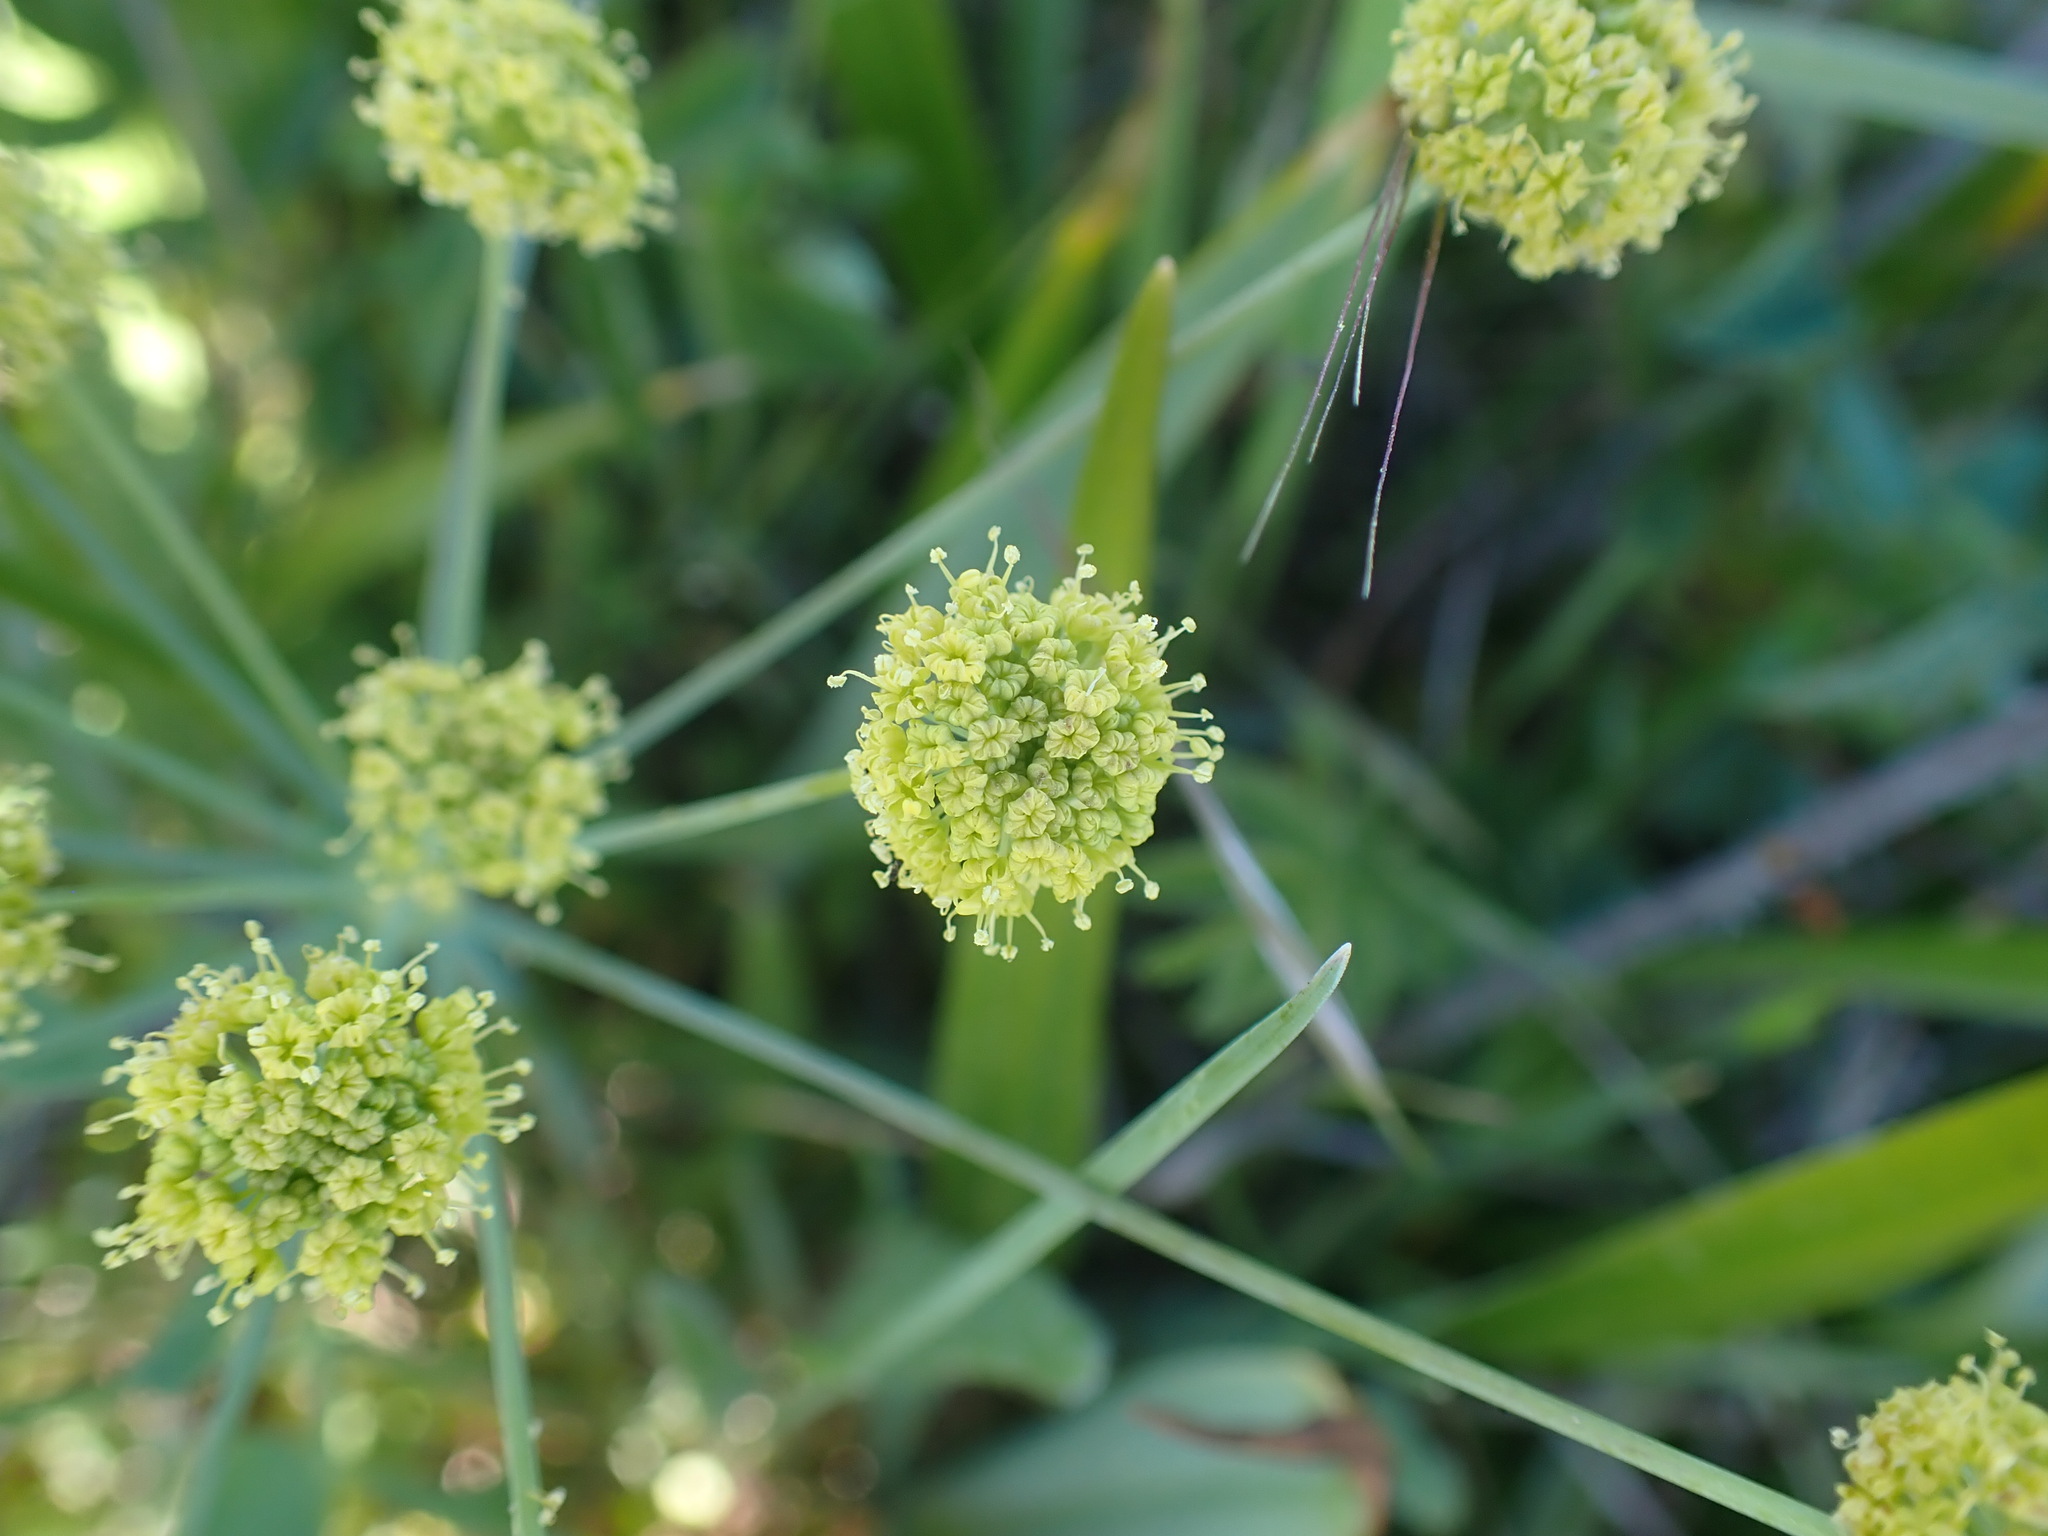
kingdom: Plantae
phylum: Tracheophyta
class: Magnoliopsida
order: Apiales
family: Apiaceae
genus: Lomatium
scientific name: Lomatium nudicaule
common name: Pestle lomatium
